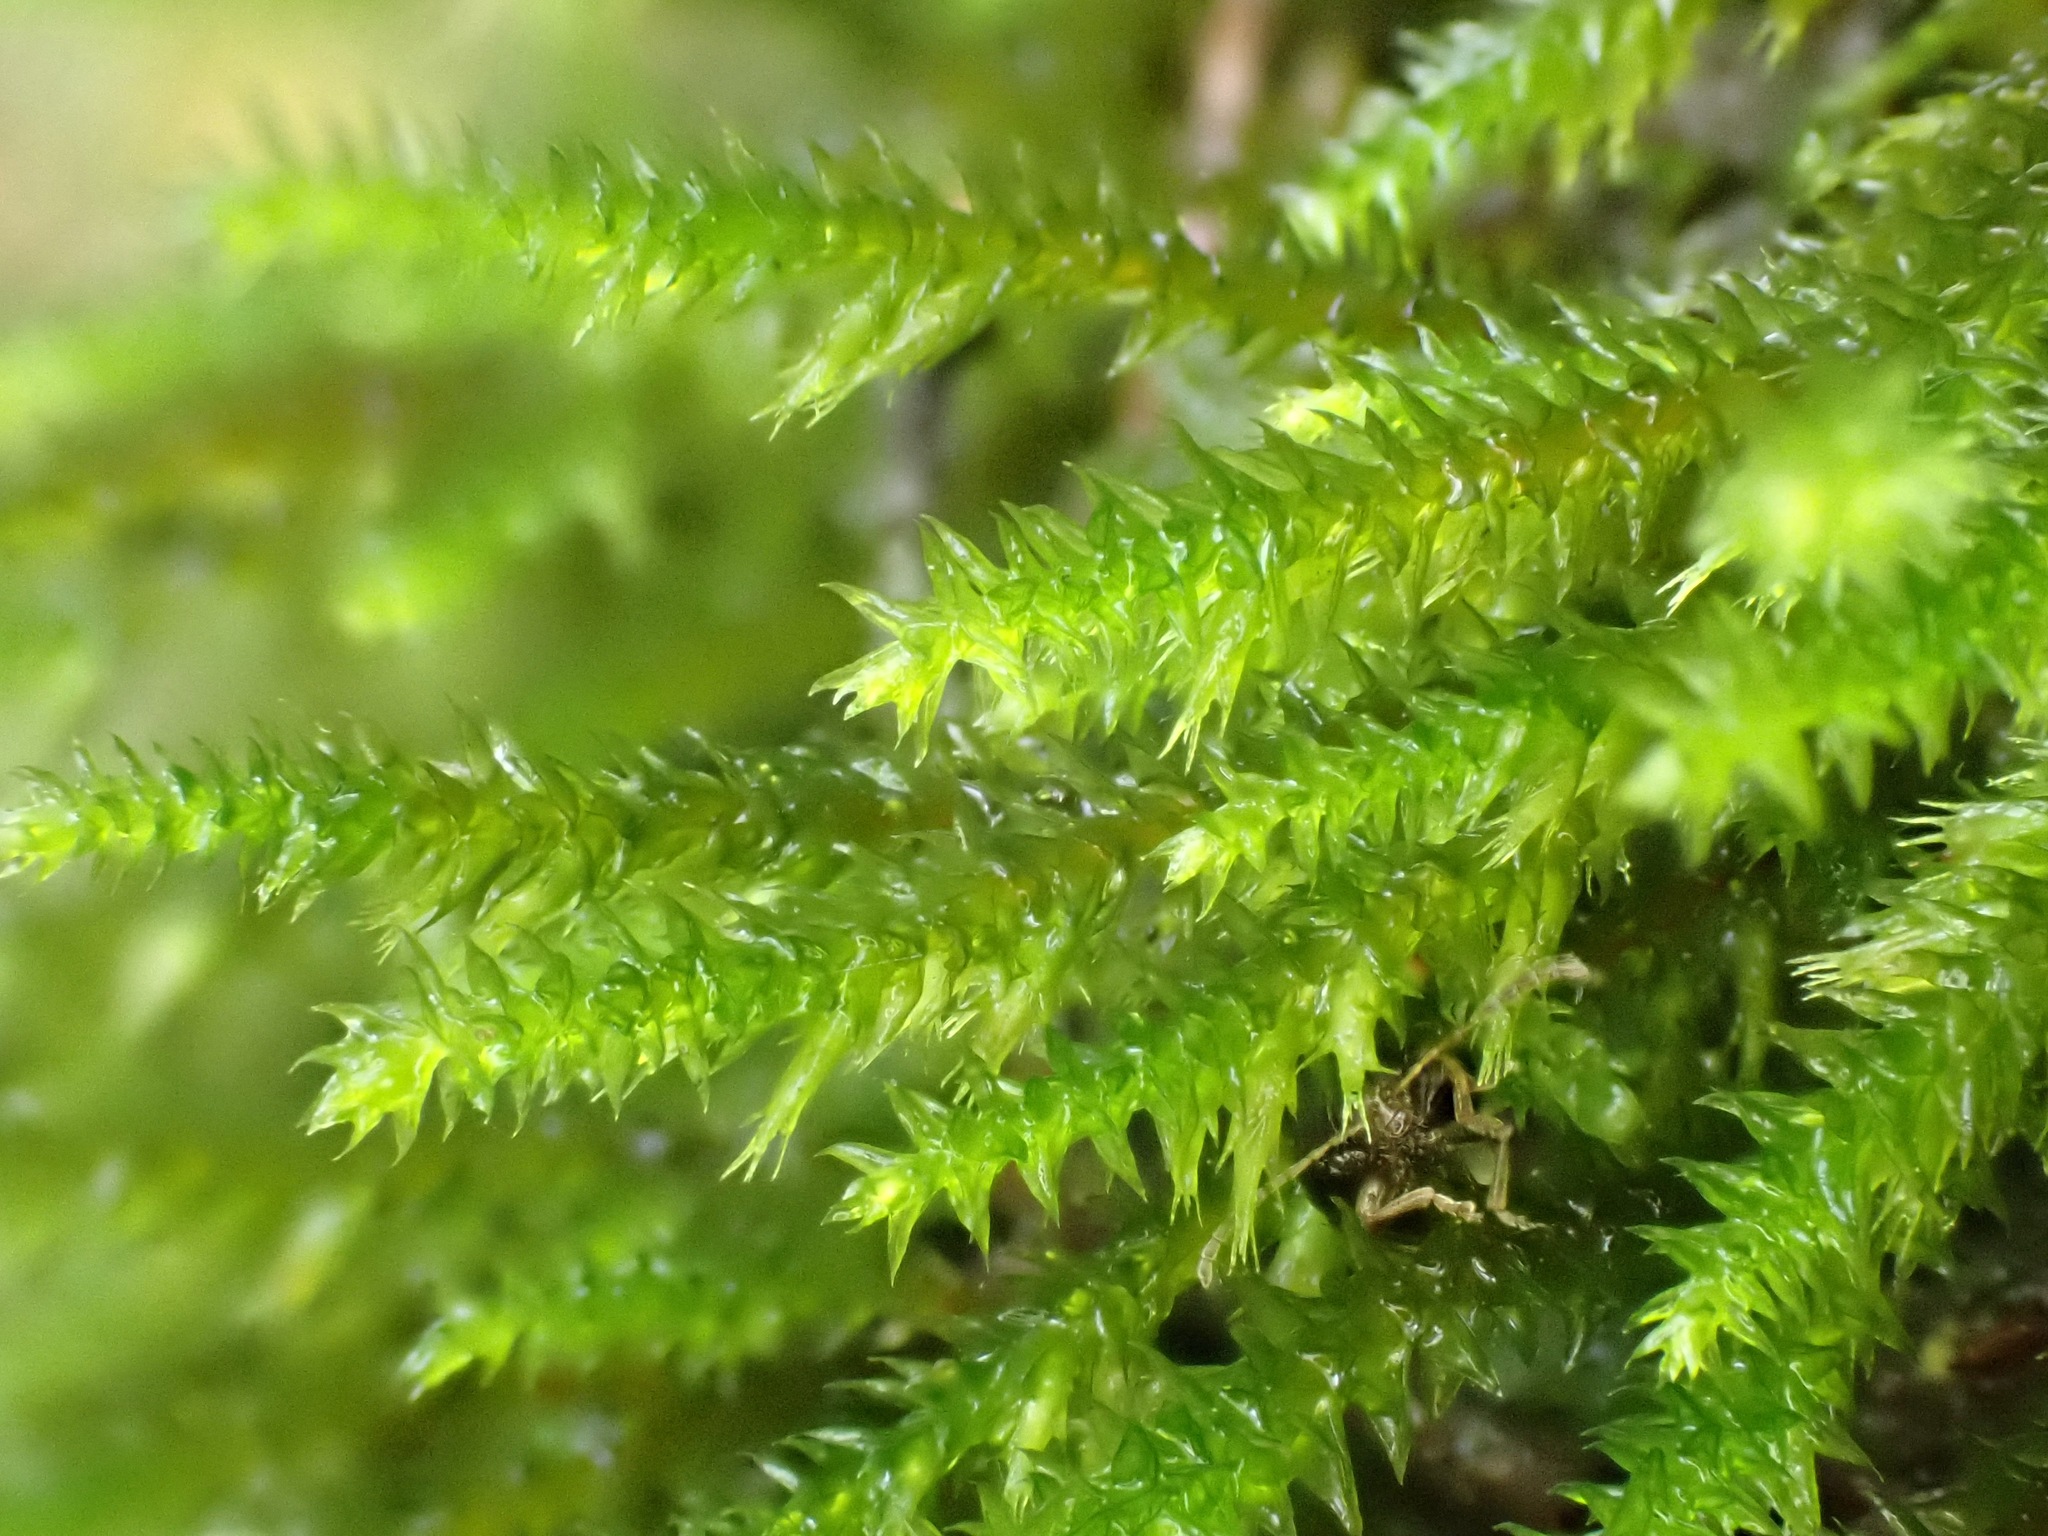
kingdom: Plantae
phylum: Bryophyta
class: Bryopsida
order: Hypnales
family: Cryphaeaceae
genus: Cryphaea
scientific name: Cryphaea heteromalla
